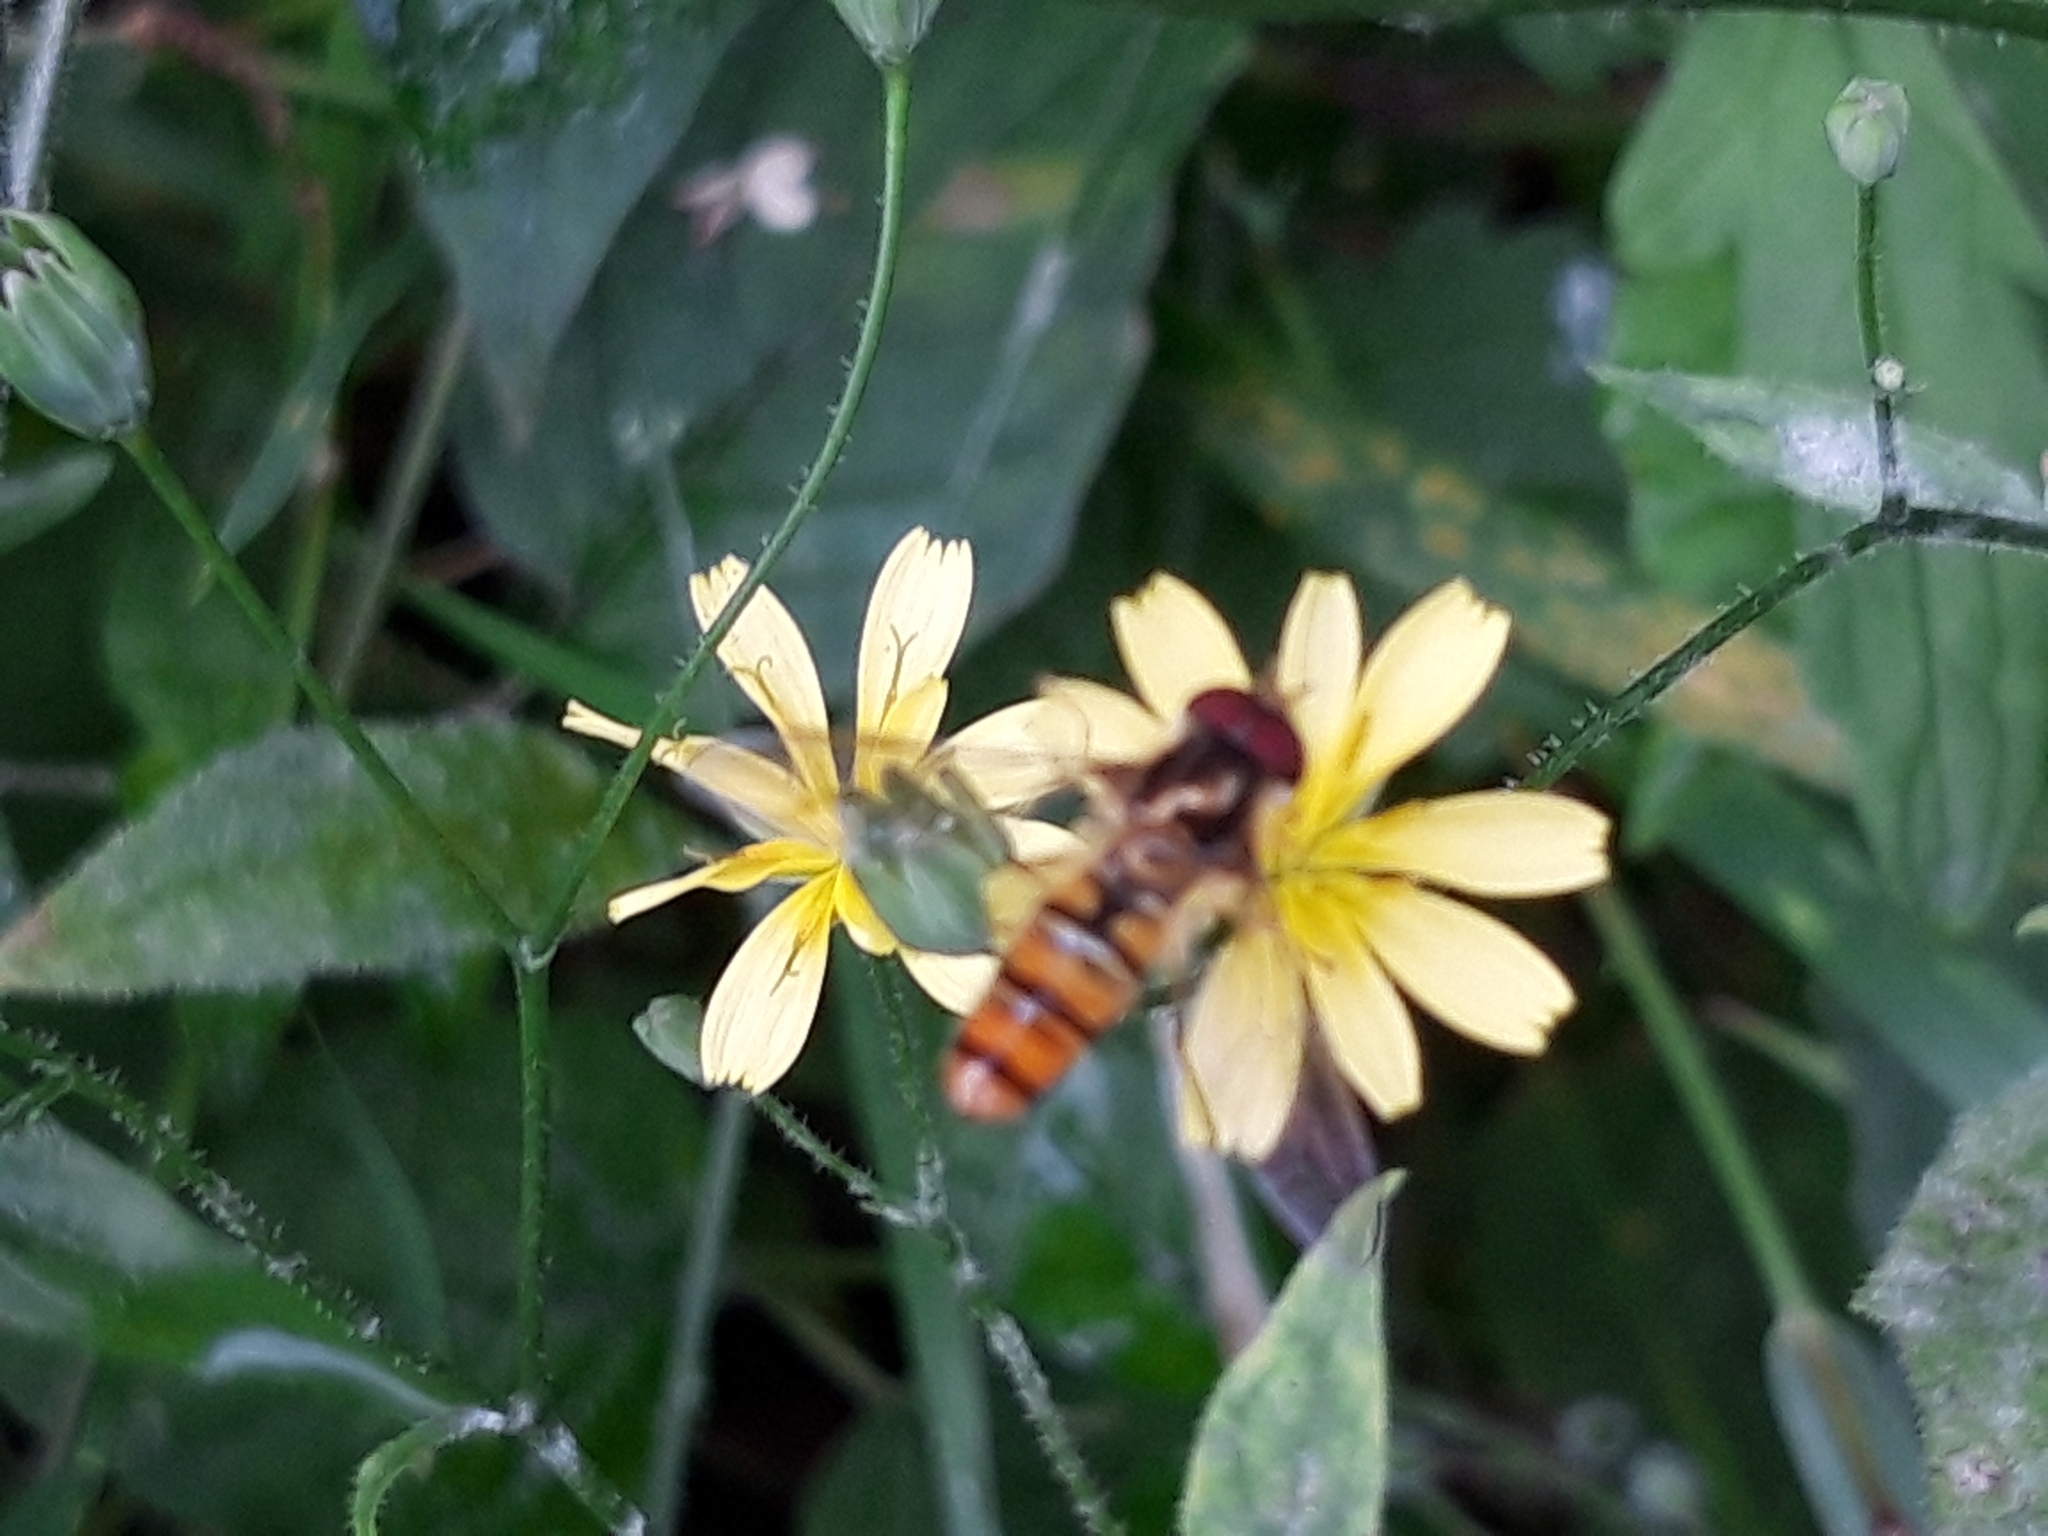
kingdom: Animalia
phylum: Arthropoda
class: Insecta
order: Diptera
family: Syrphidae
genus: Episyrphus
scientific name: Episyrphus balteatus
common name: Marmalade hoverfly
